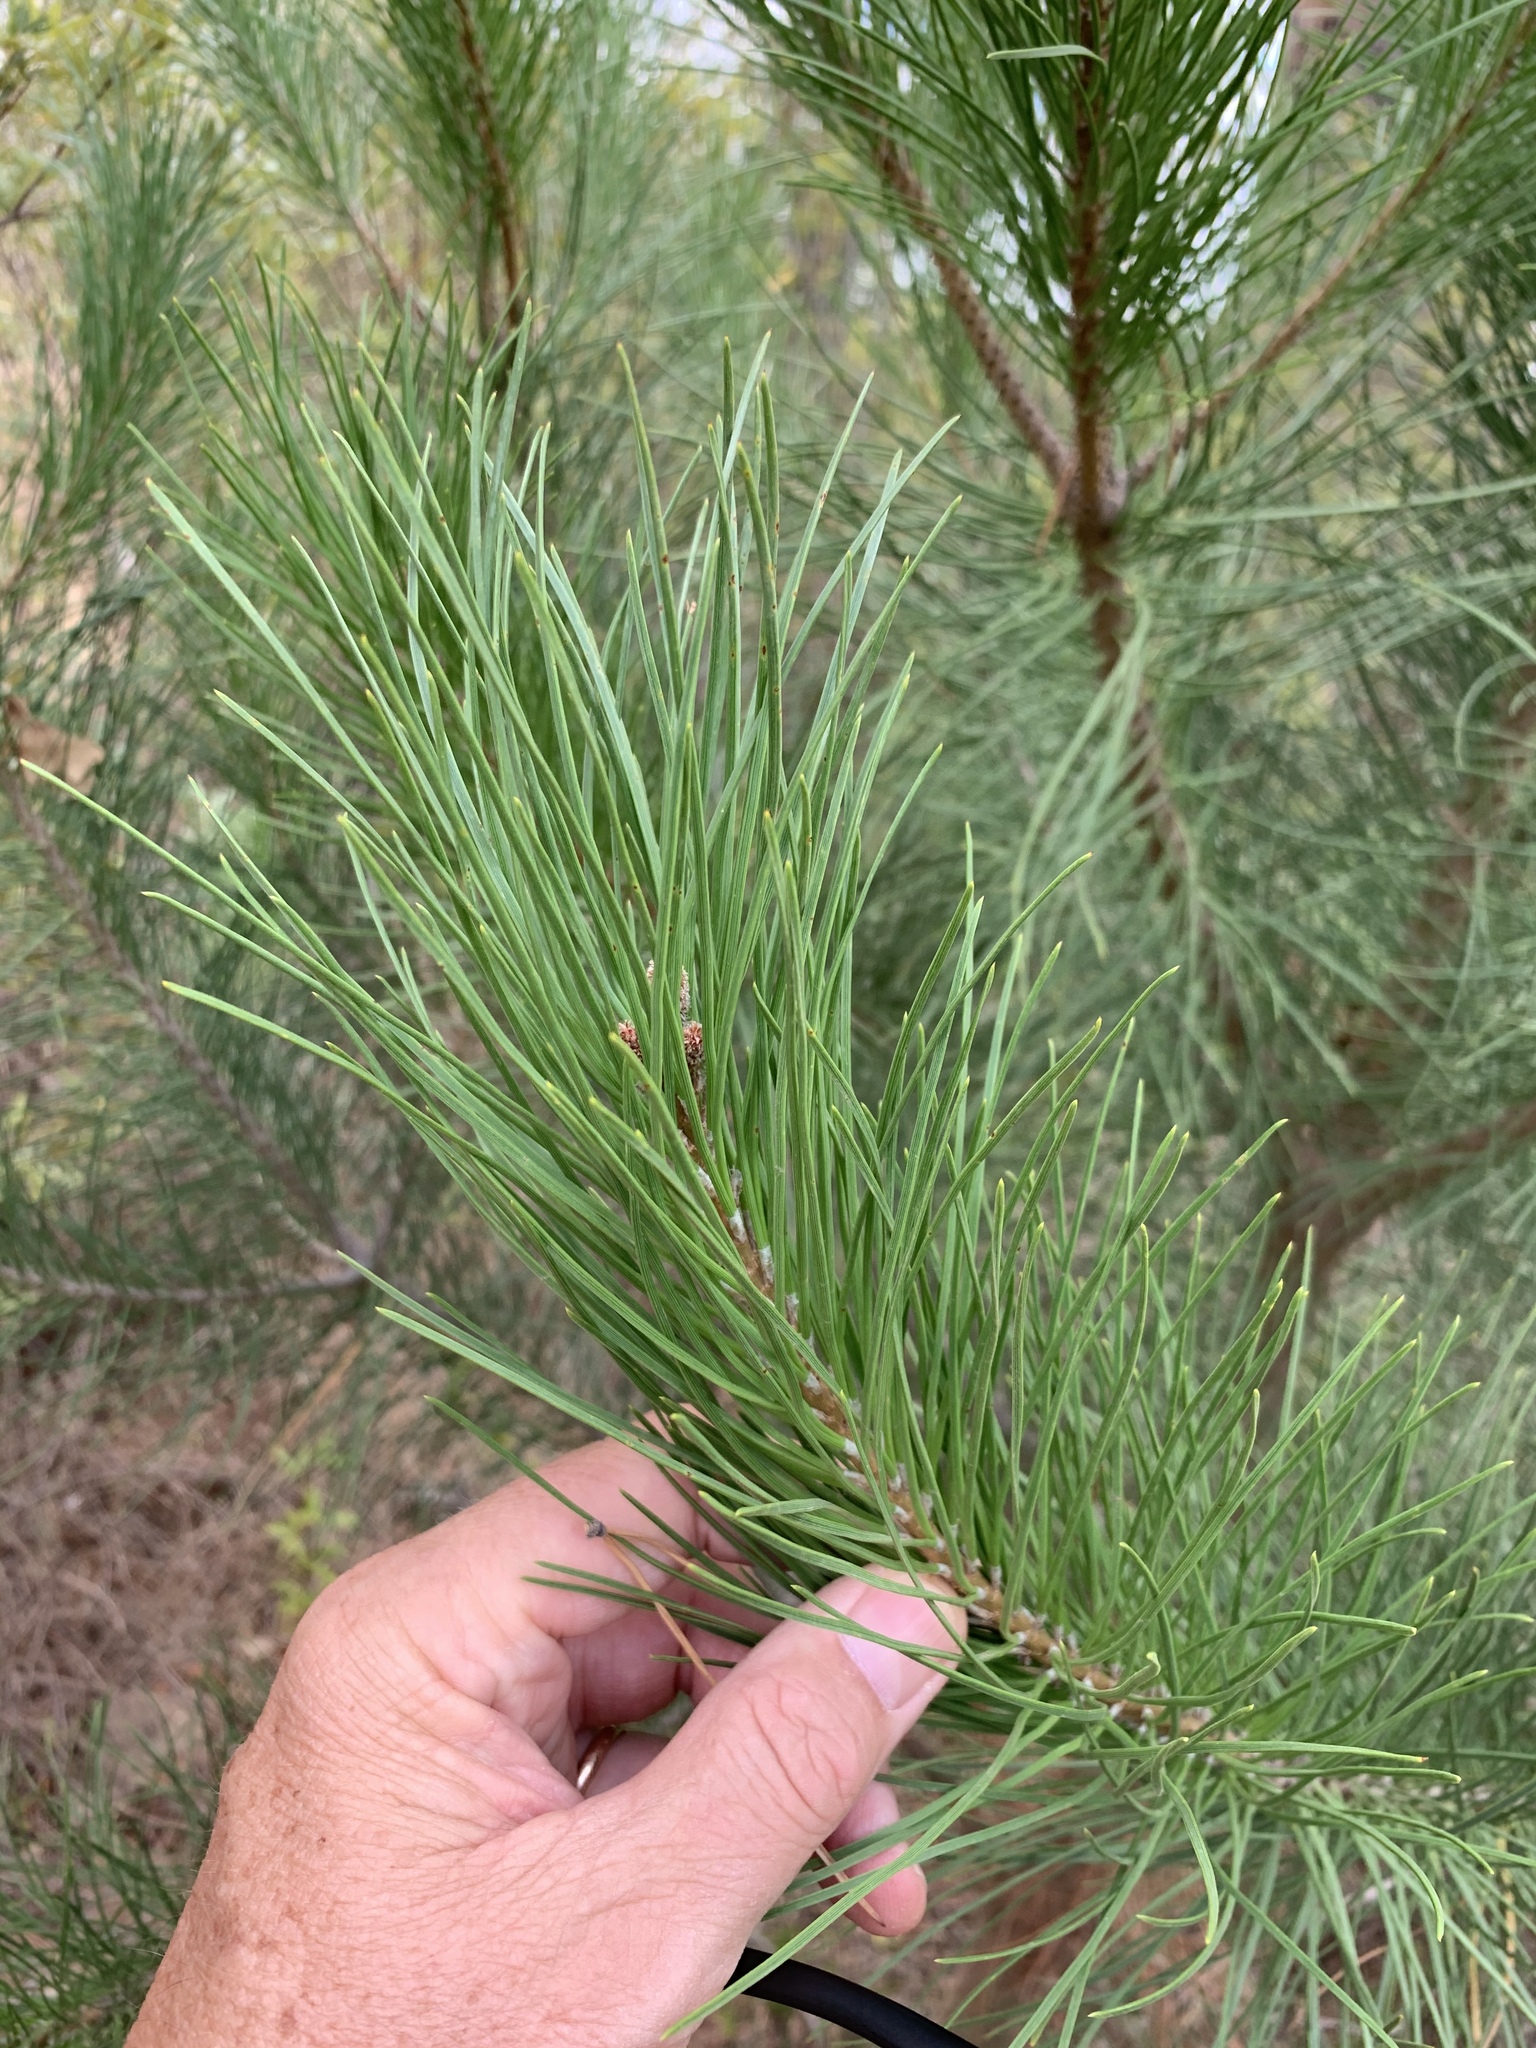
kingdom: Plantae
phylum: Tracheophyta
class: Pinopsida
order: Pinales
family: Pinaceae
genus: Pinus
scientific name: Pinus pinaster
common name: Maritime pine
